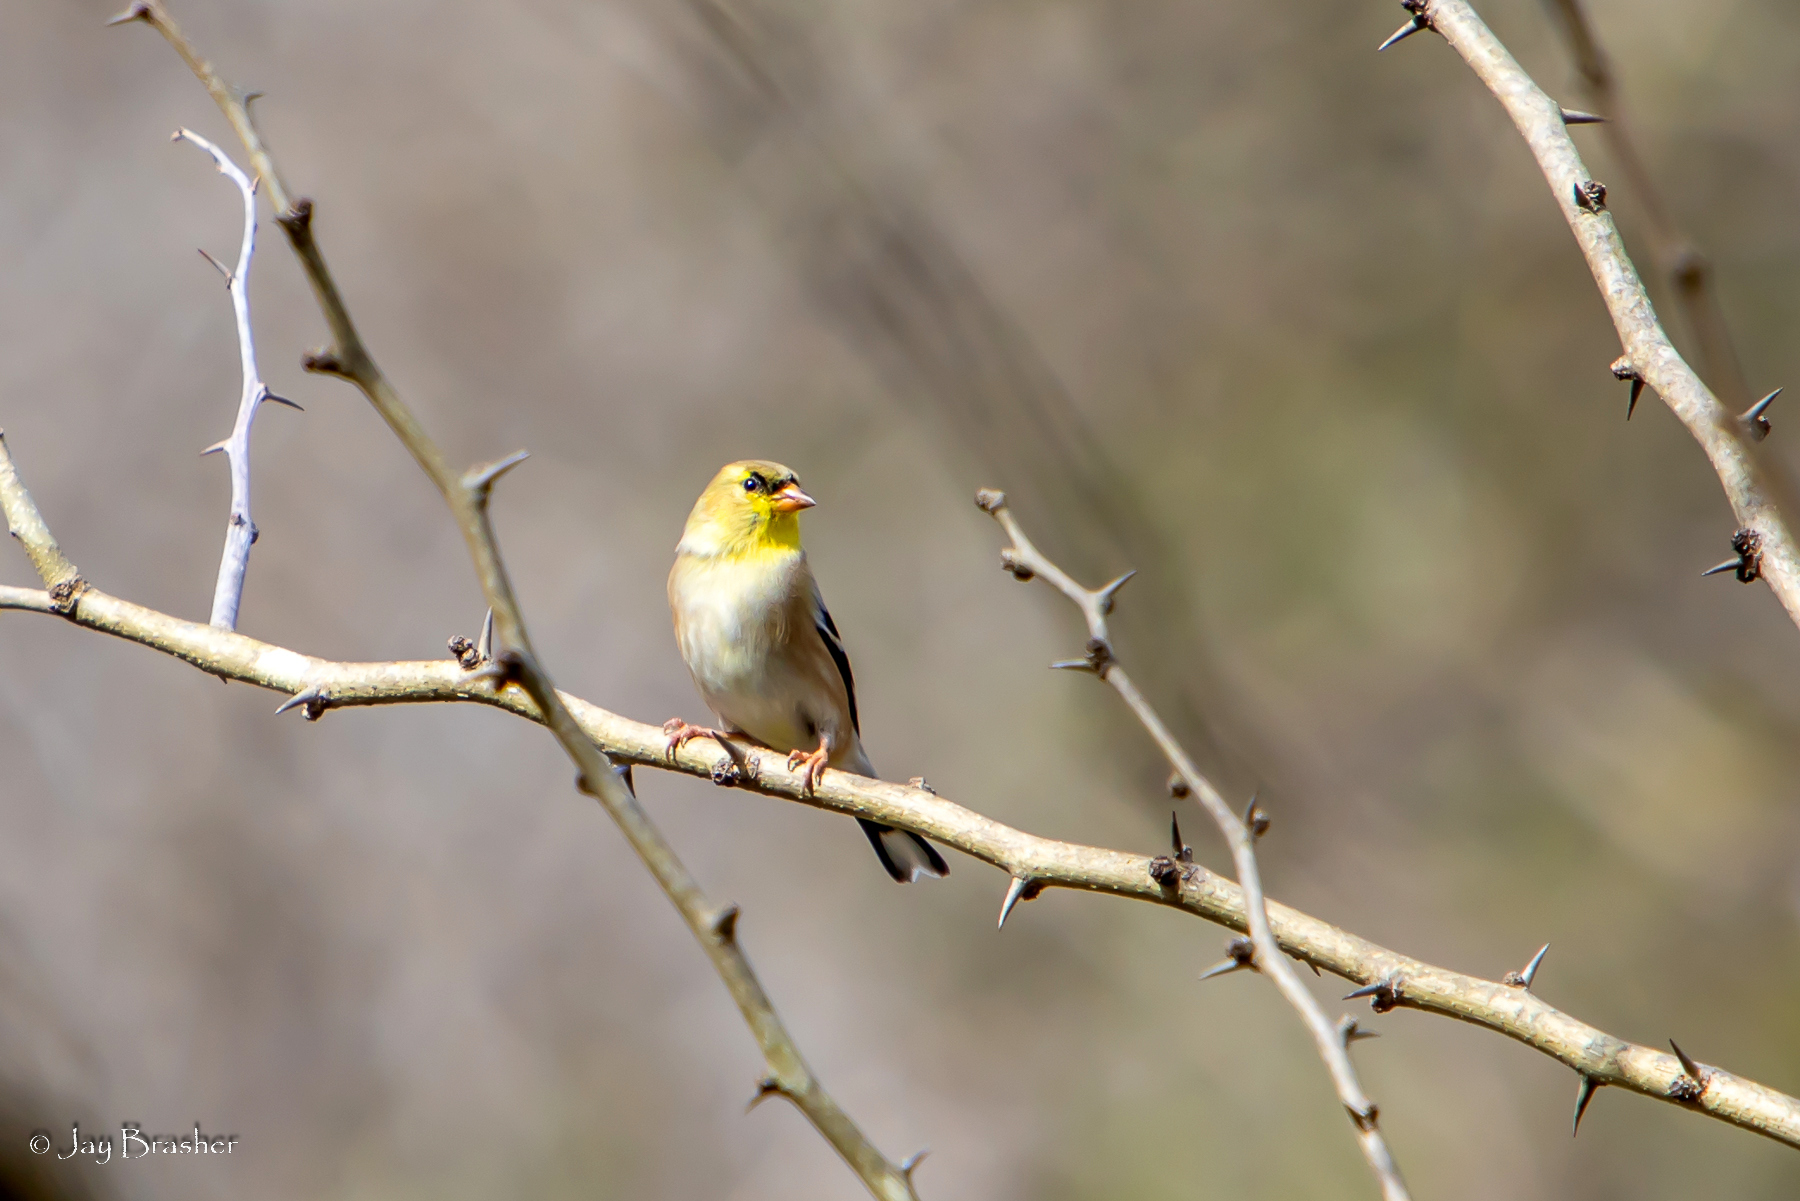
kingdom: Animalia
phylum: Chordata
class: Aves
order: Passeriformes
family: Fringillidae
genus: Spinus
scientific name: Spinus tristis
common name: American goldfinch
